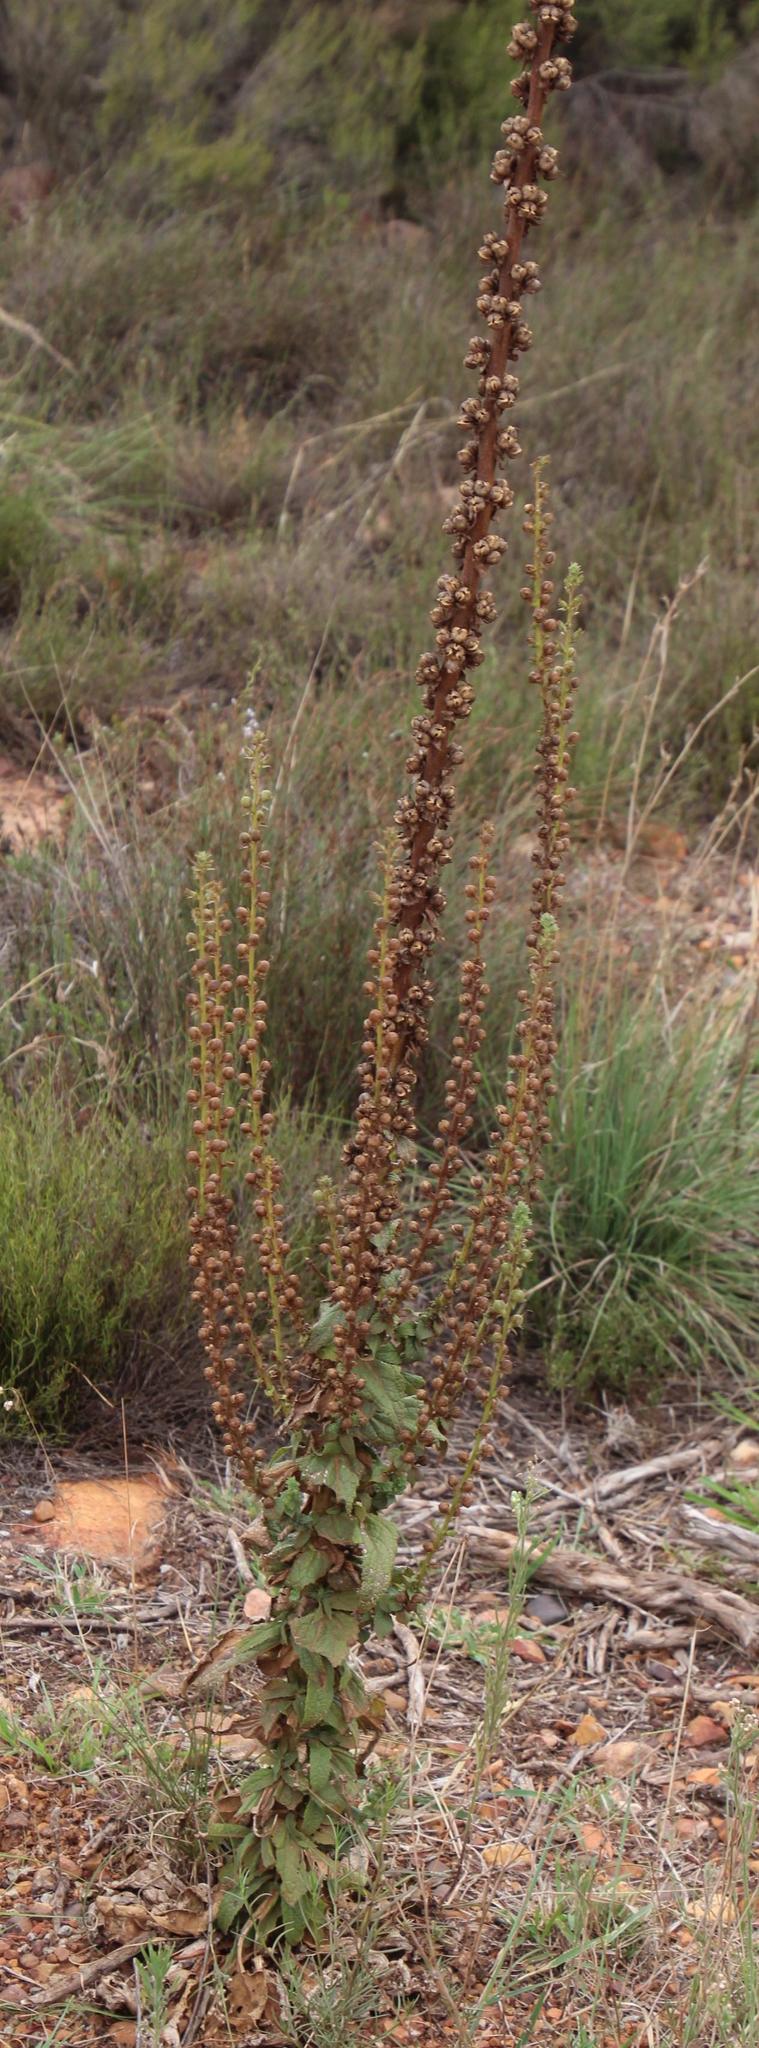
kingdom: Plantae
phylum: Tracheophyta
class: Magnoliopsida
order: Lamiales
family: Scrophulariaceae
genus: Verbascum
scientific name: Verbascum virgatum
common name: Twiggy mullein
